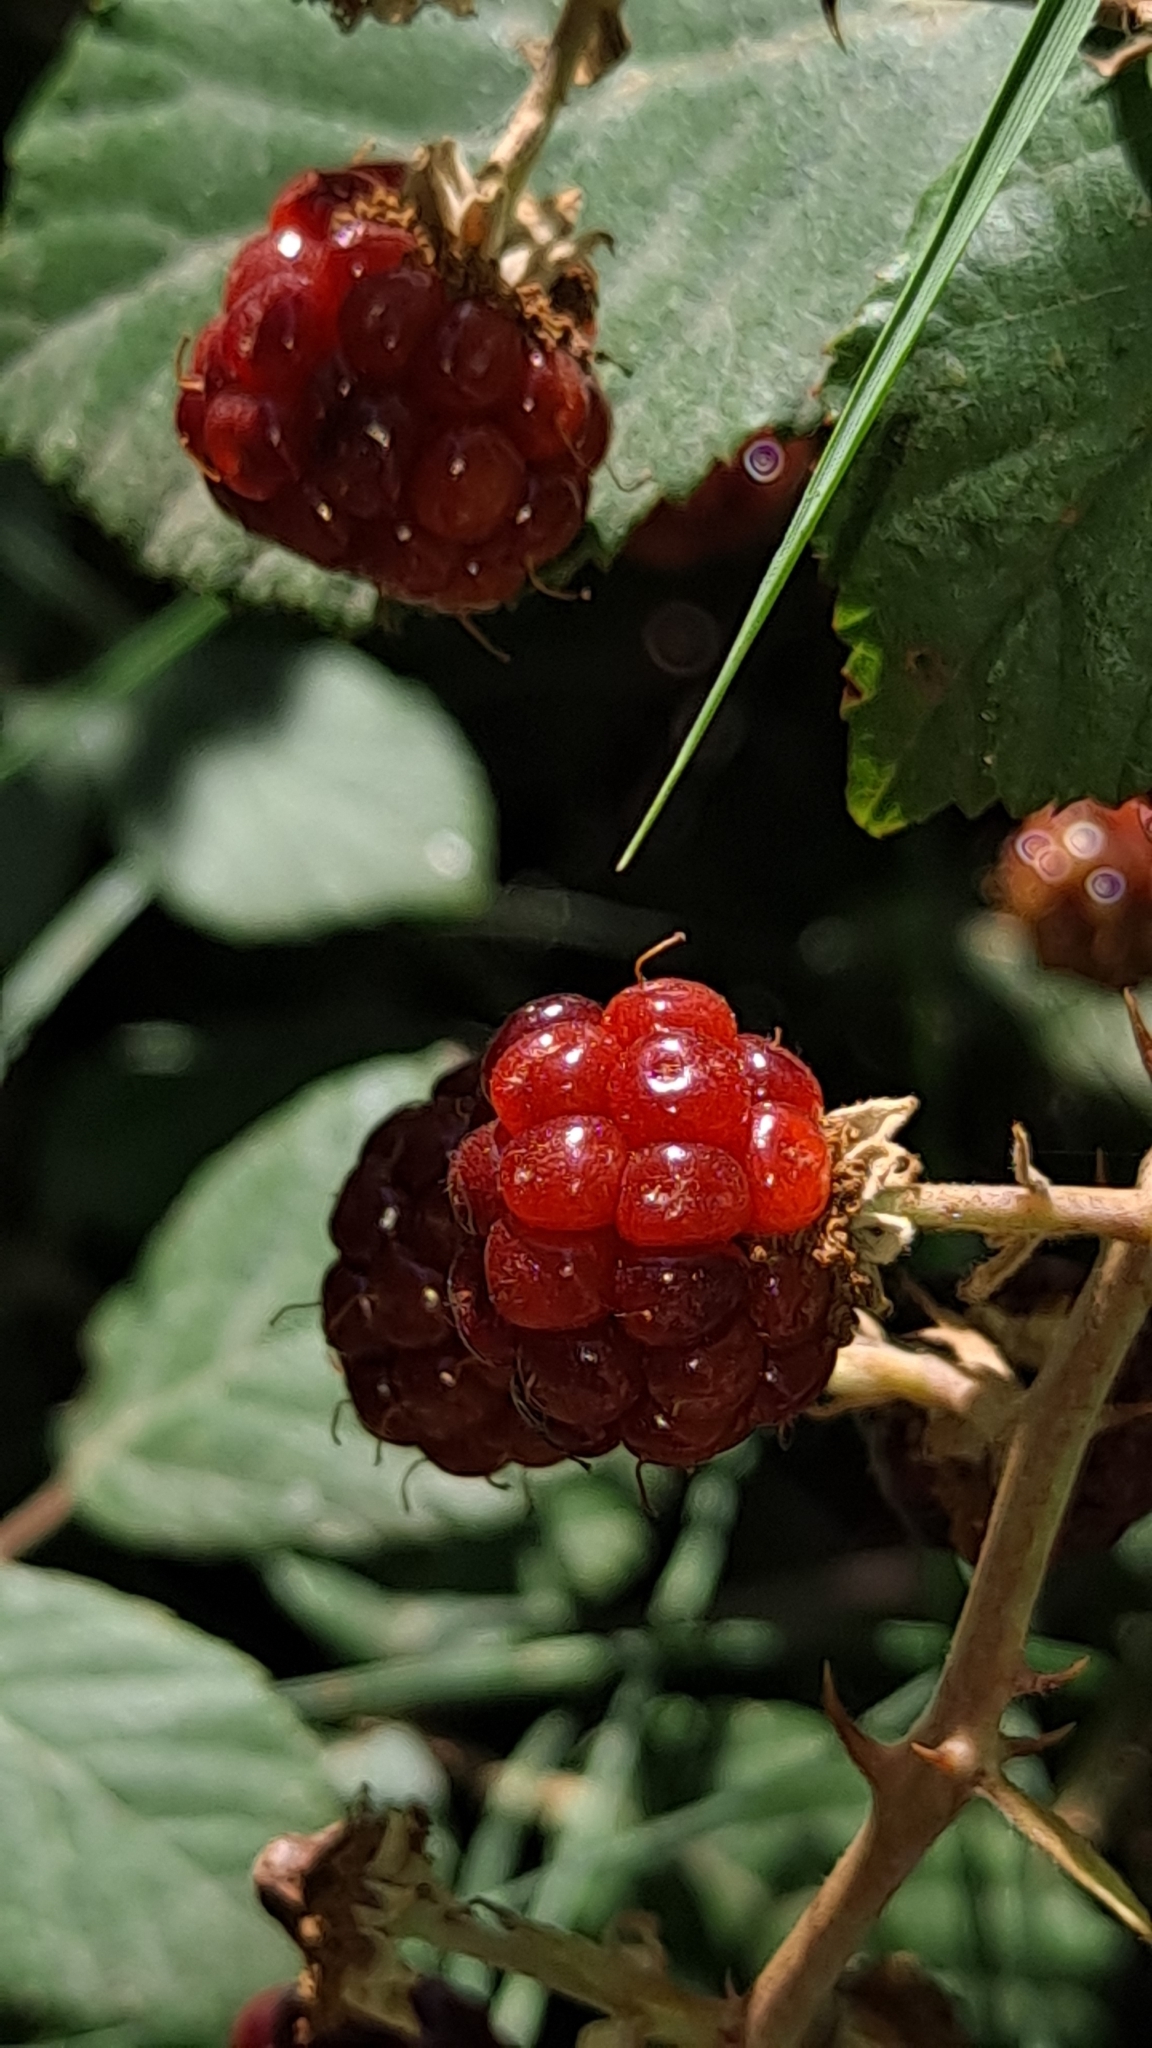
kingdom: Plantae
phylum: Tracheophyta
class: Magnoliopsida
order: Rosales
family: Rosaceae
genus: Rubus
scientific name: Rubus ulmifolius
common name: Elmleaf blackberry
